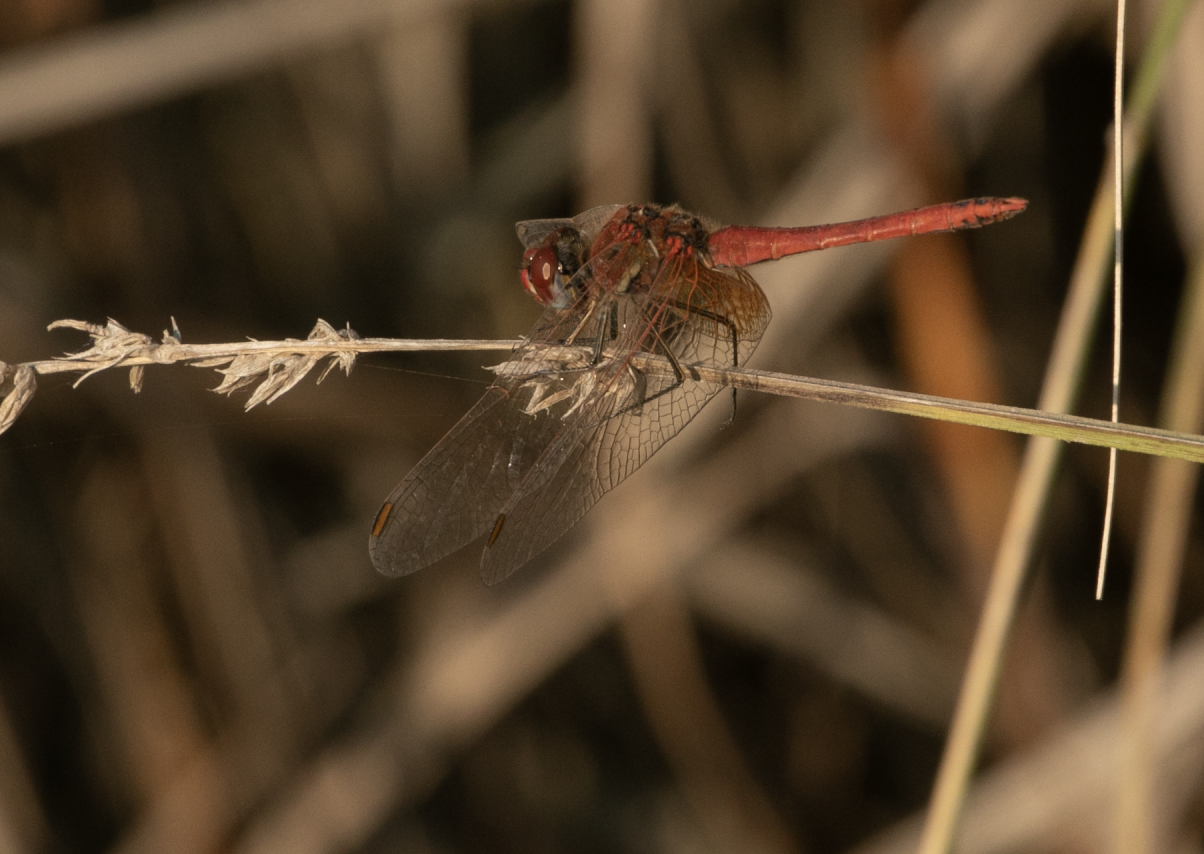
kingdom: Animalia
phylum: Arthropoda
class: Insecta
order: Odonata
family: Libellulidae
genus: Sympetrum
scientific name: Sympetrum fonscolombii
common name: Red-veined darter
